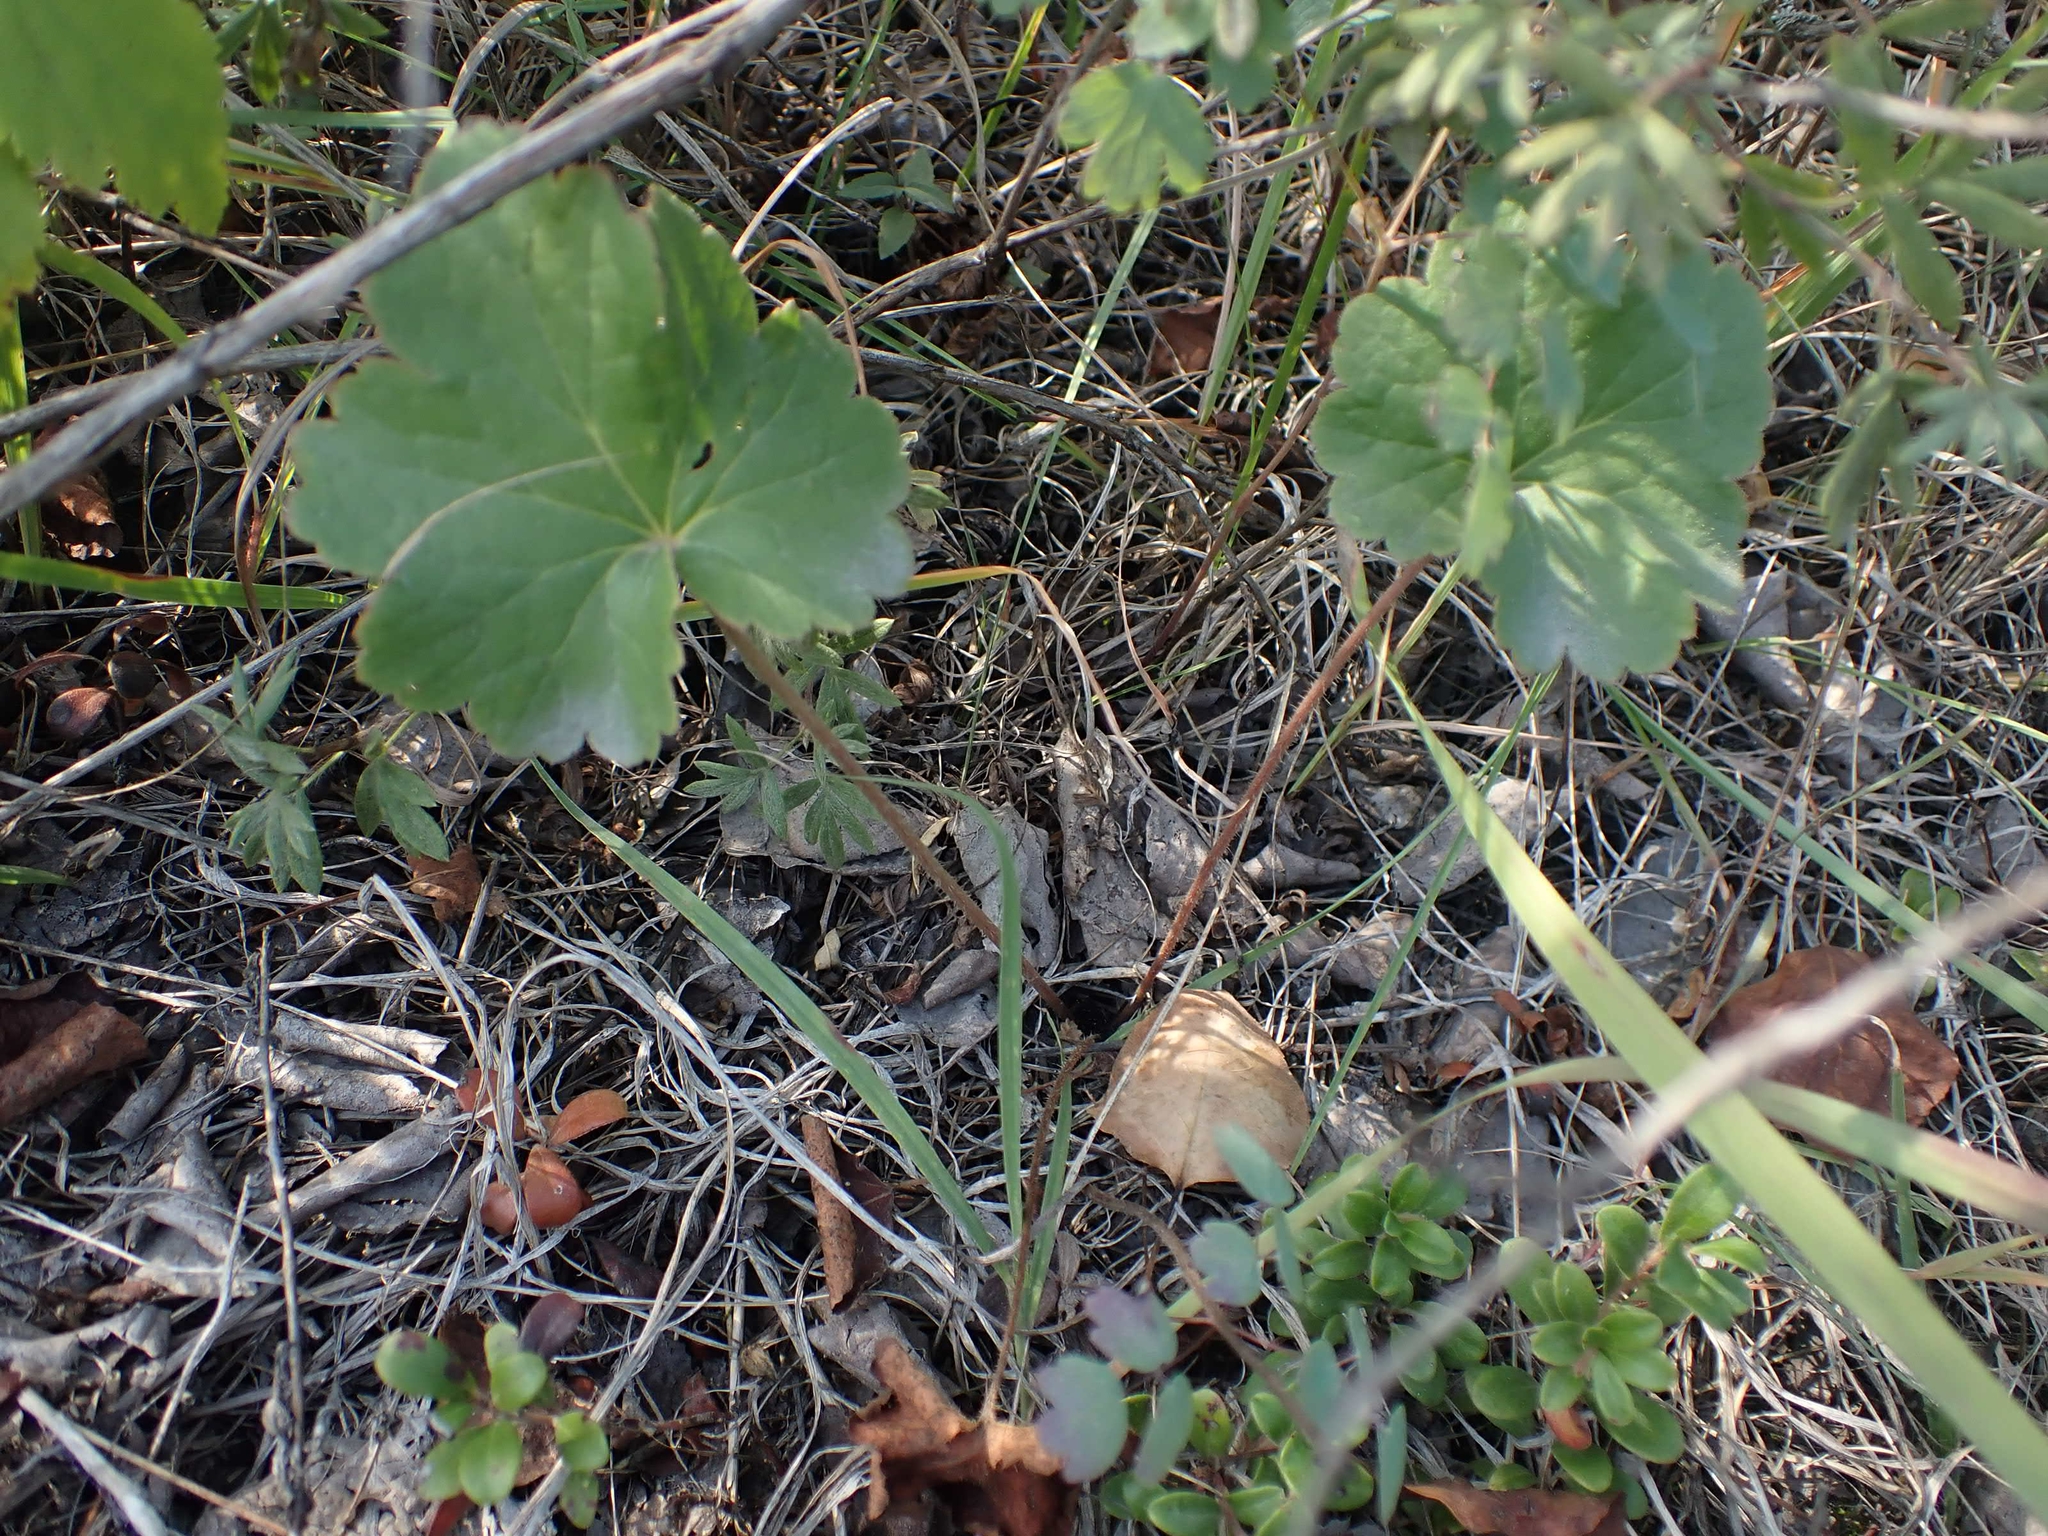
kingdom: Plantae
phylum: Tracheophyta
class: Magnoliopsida
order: Saxifragales
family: Saxifragaceae
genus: Heuchera
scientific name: Heuchera richardsonii
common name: Richardson's alumroot
